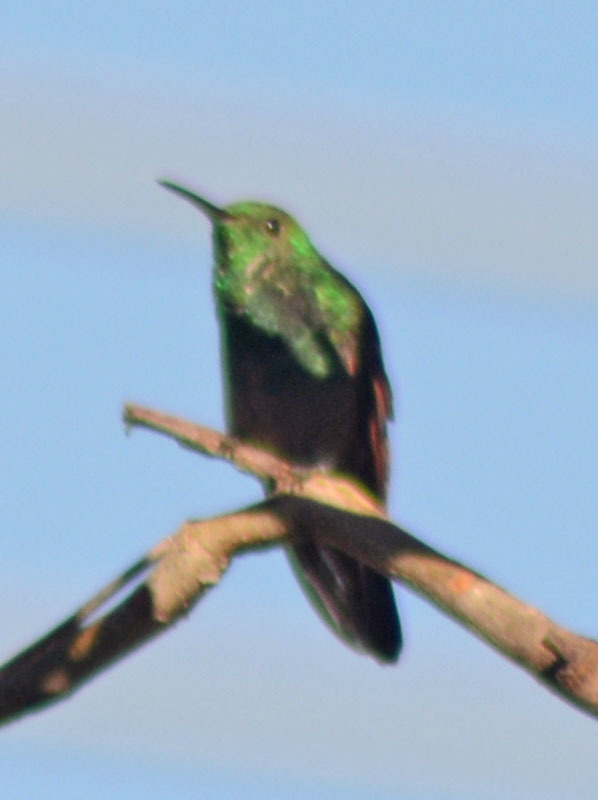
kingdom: Animalia
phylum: Chordata
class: Aves
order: Apodiformes
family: Trochilidae
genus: Saucerottia
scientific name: Saucerottia beryllina
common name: Berylline hummingbird
